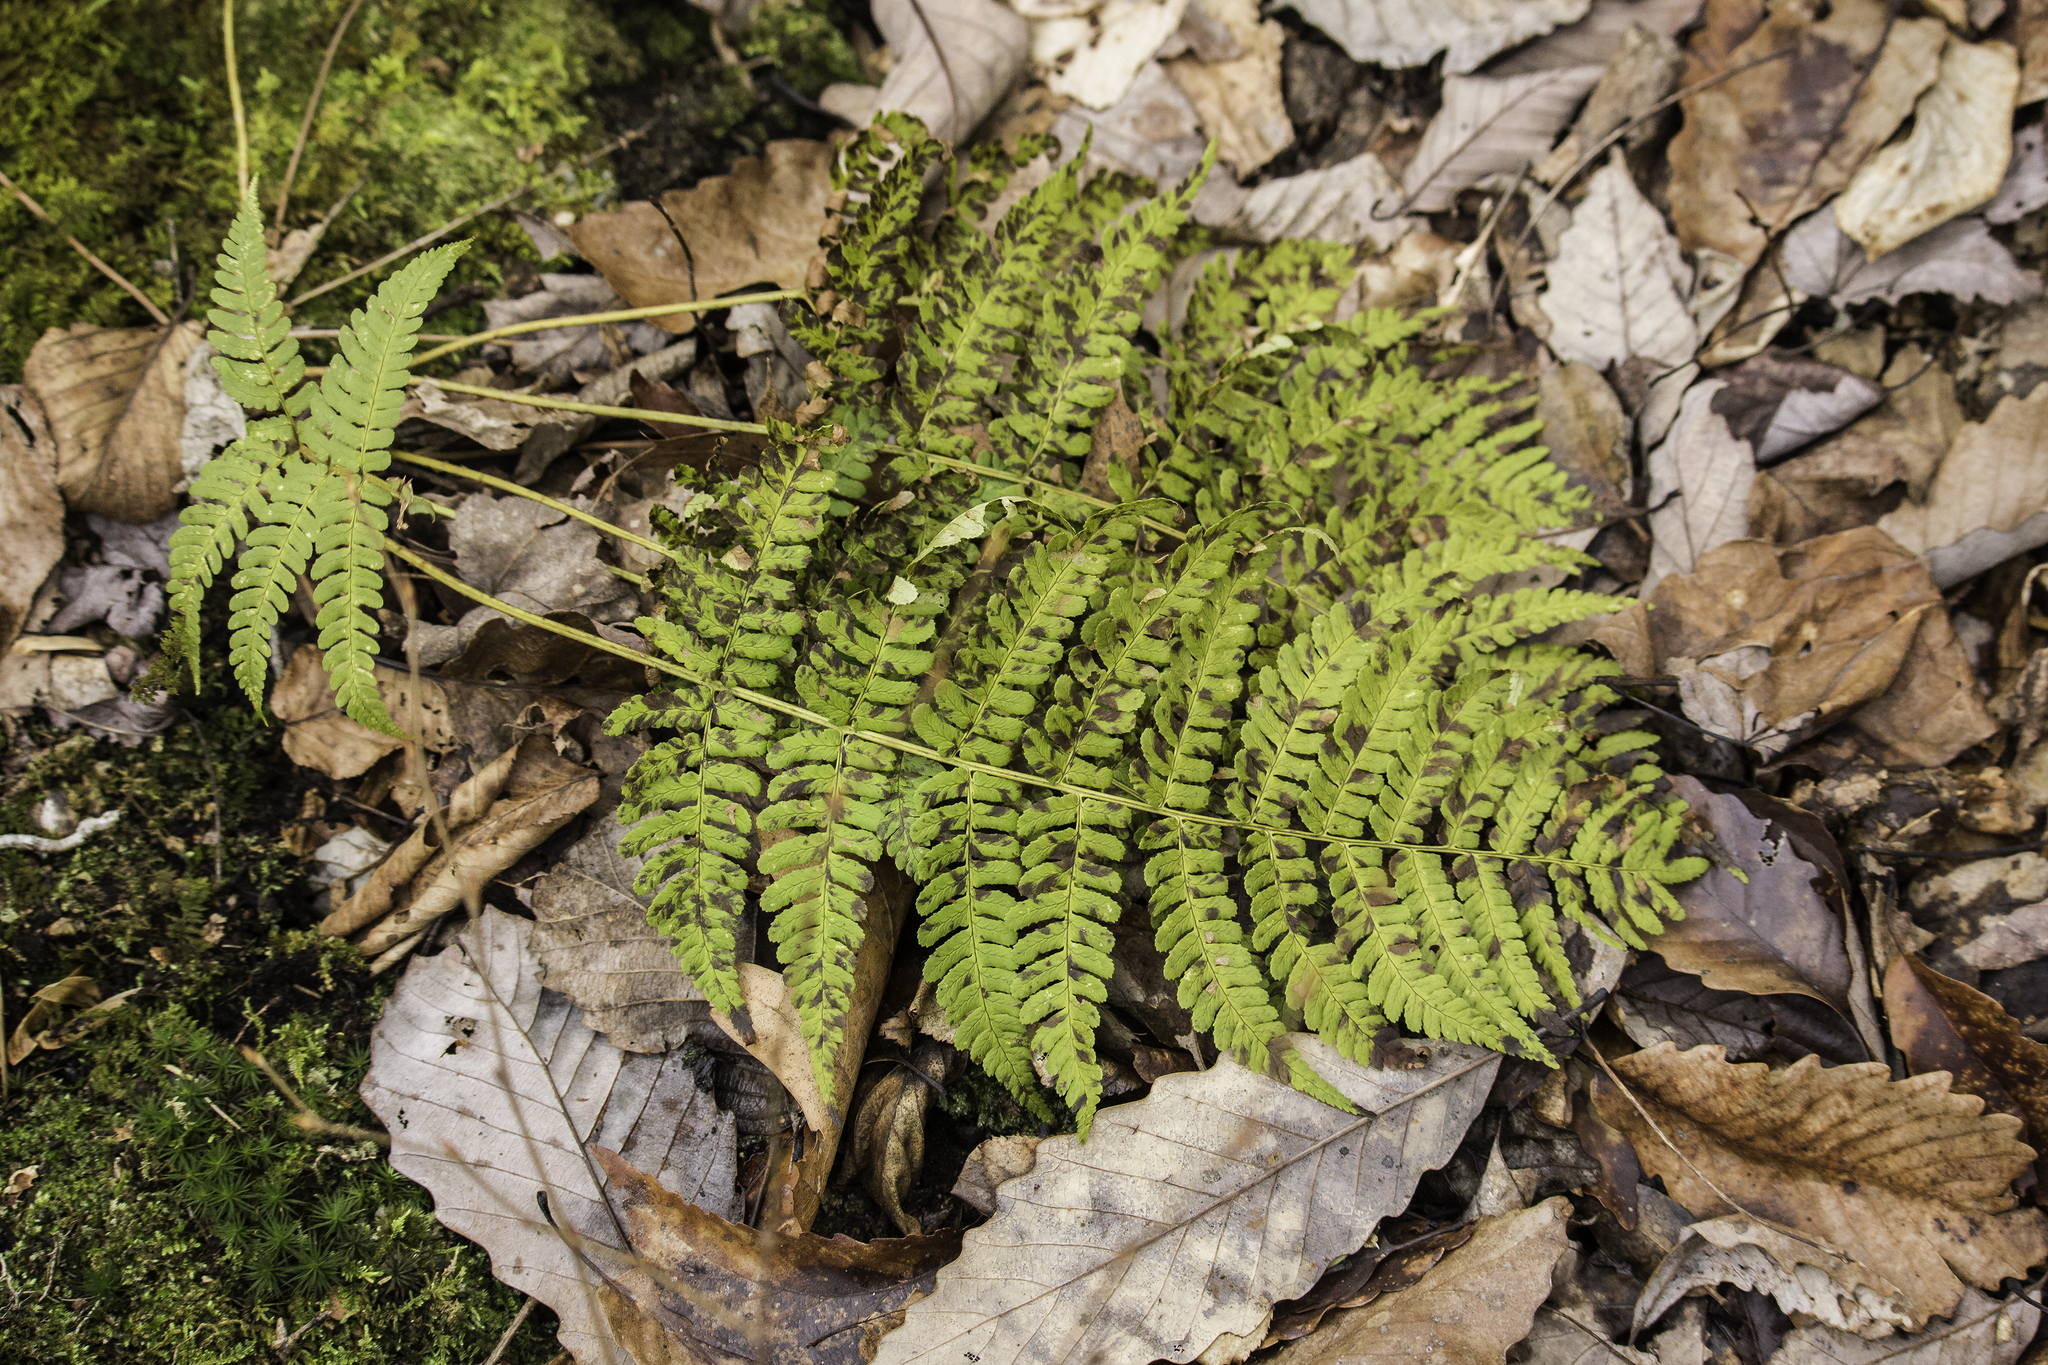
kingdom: Plantae
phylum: Tracheophyta
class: Polypodiopsida
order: Polypodiales
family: Dryopteridaceae
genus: Dryopteris
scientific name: Dryopteris marginalis
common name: Marginal wood fern
